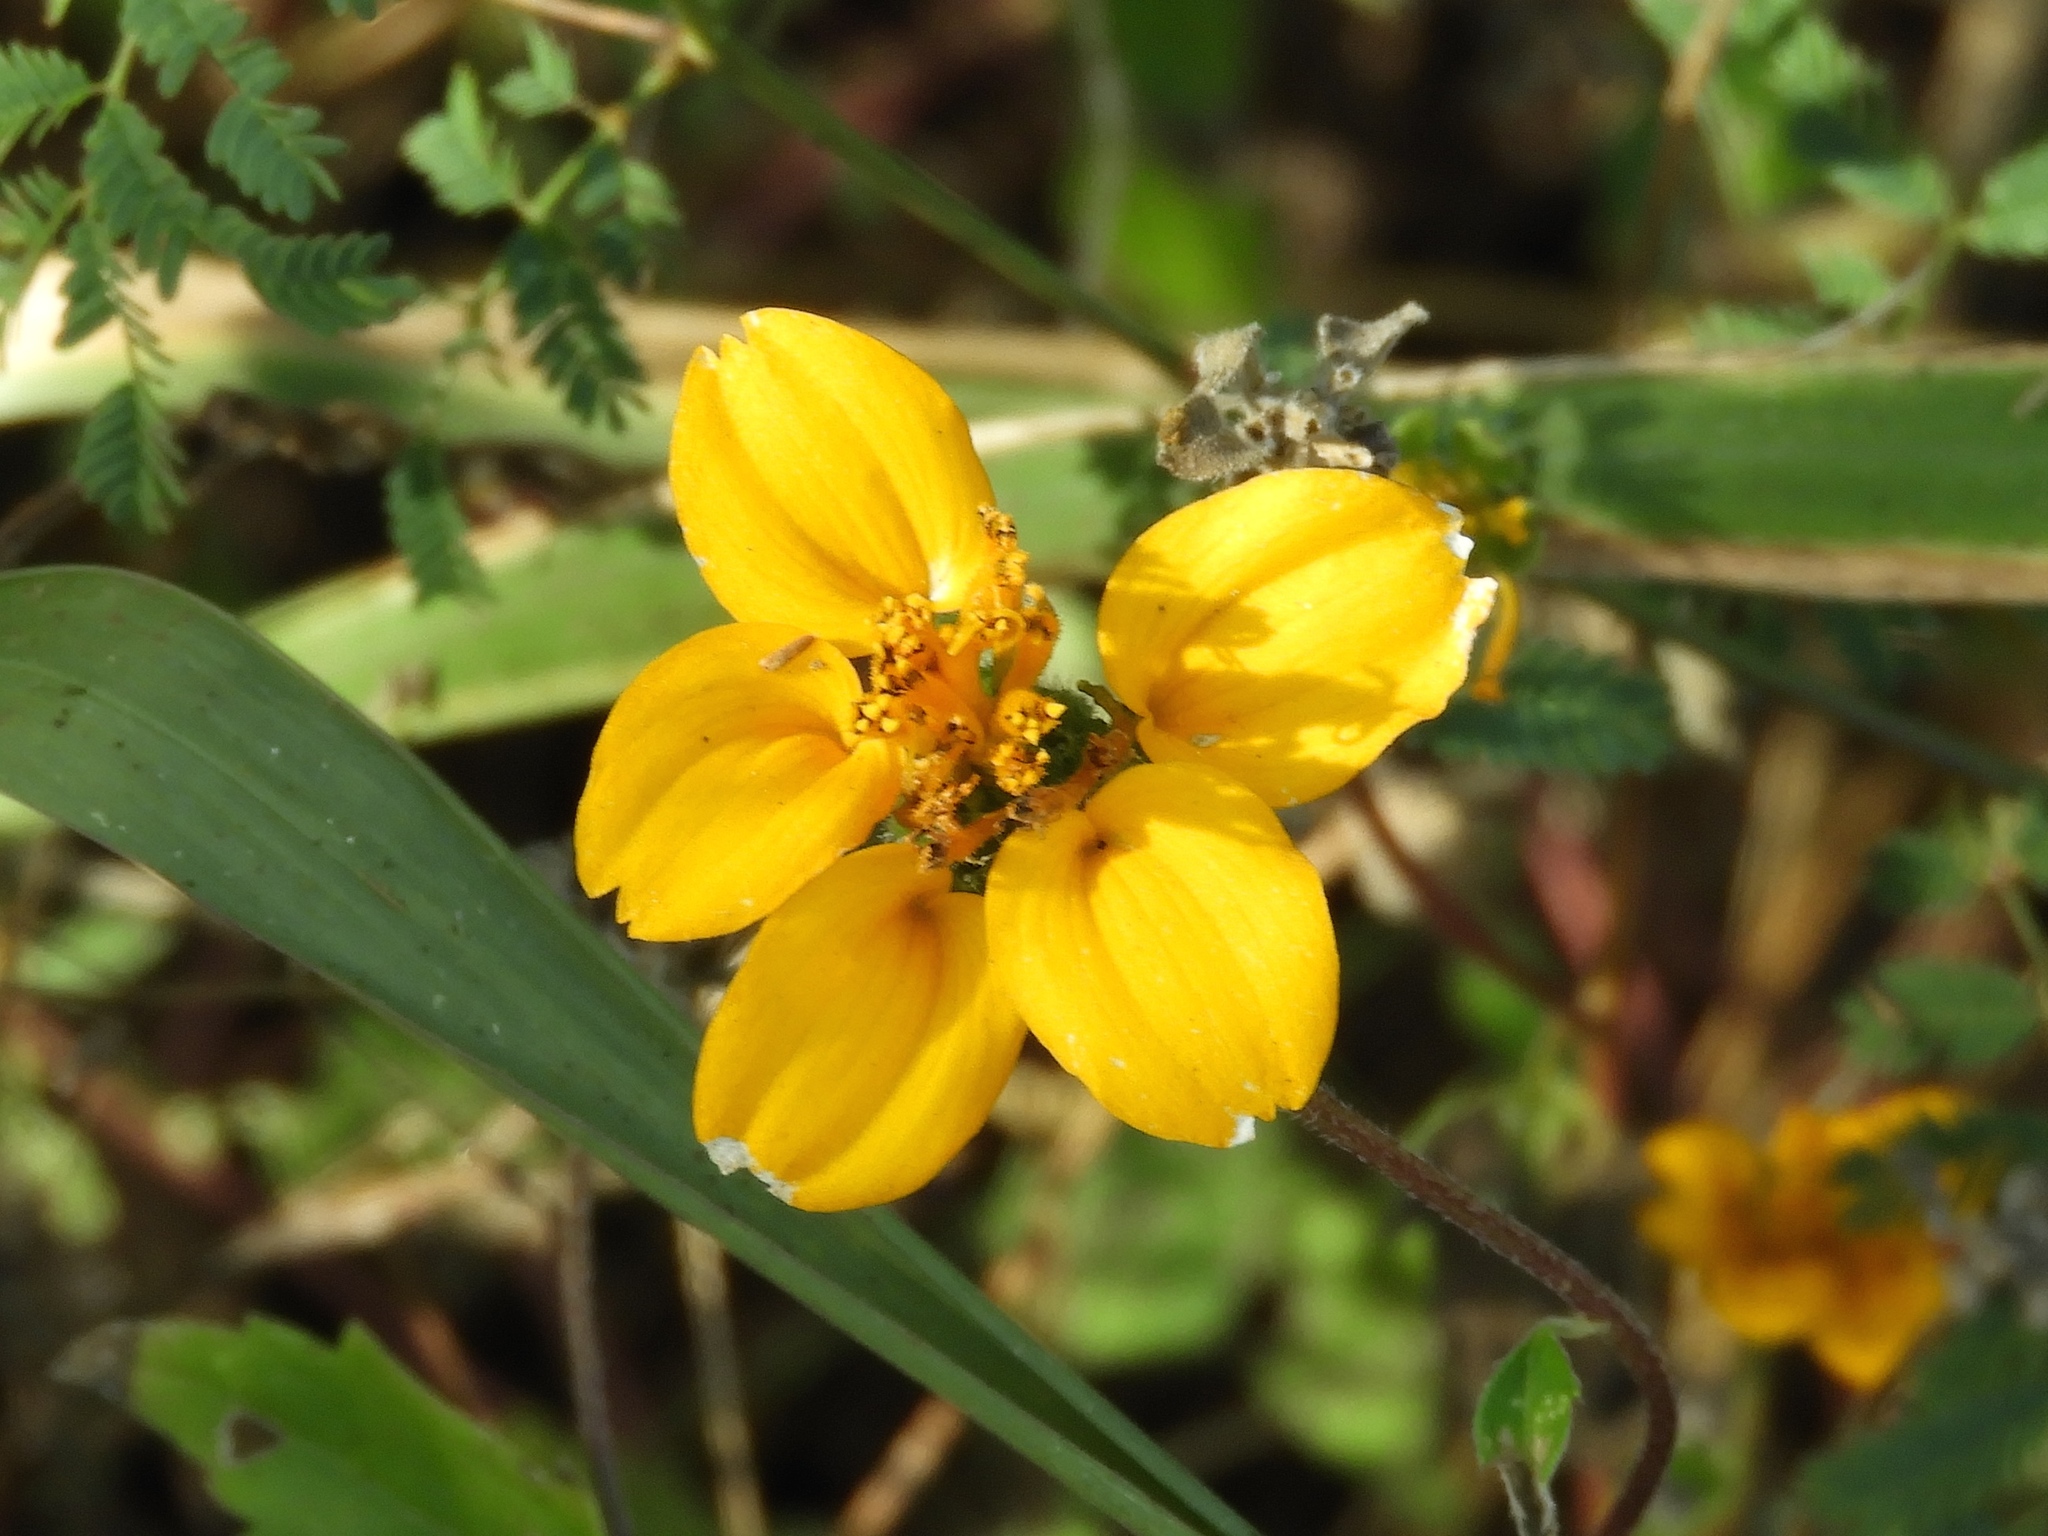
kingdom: Plantae
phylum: Tracheophyta
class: Magnoliopsida
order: Asterales
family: Asteraceae
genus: Sclerocarpus
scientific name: Sclerocarpus divaricatus
